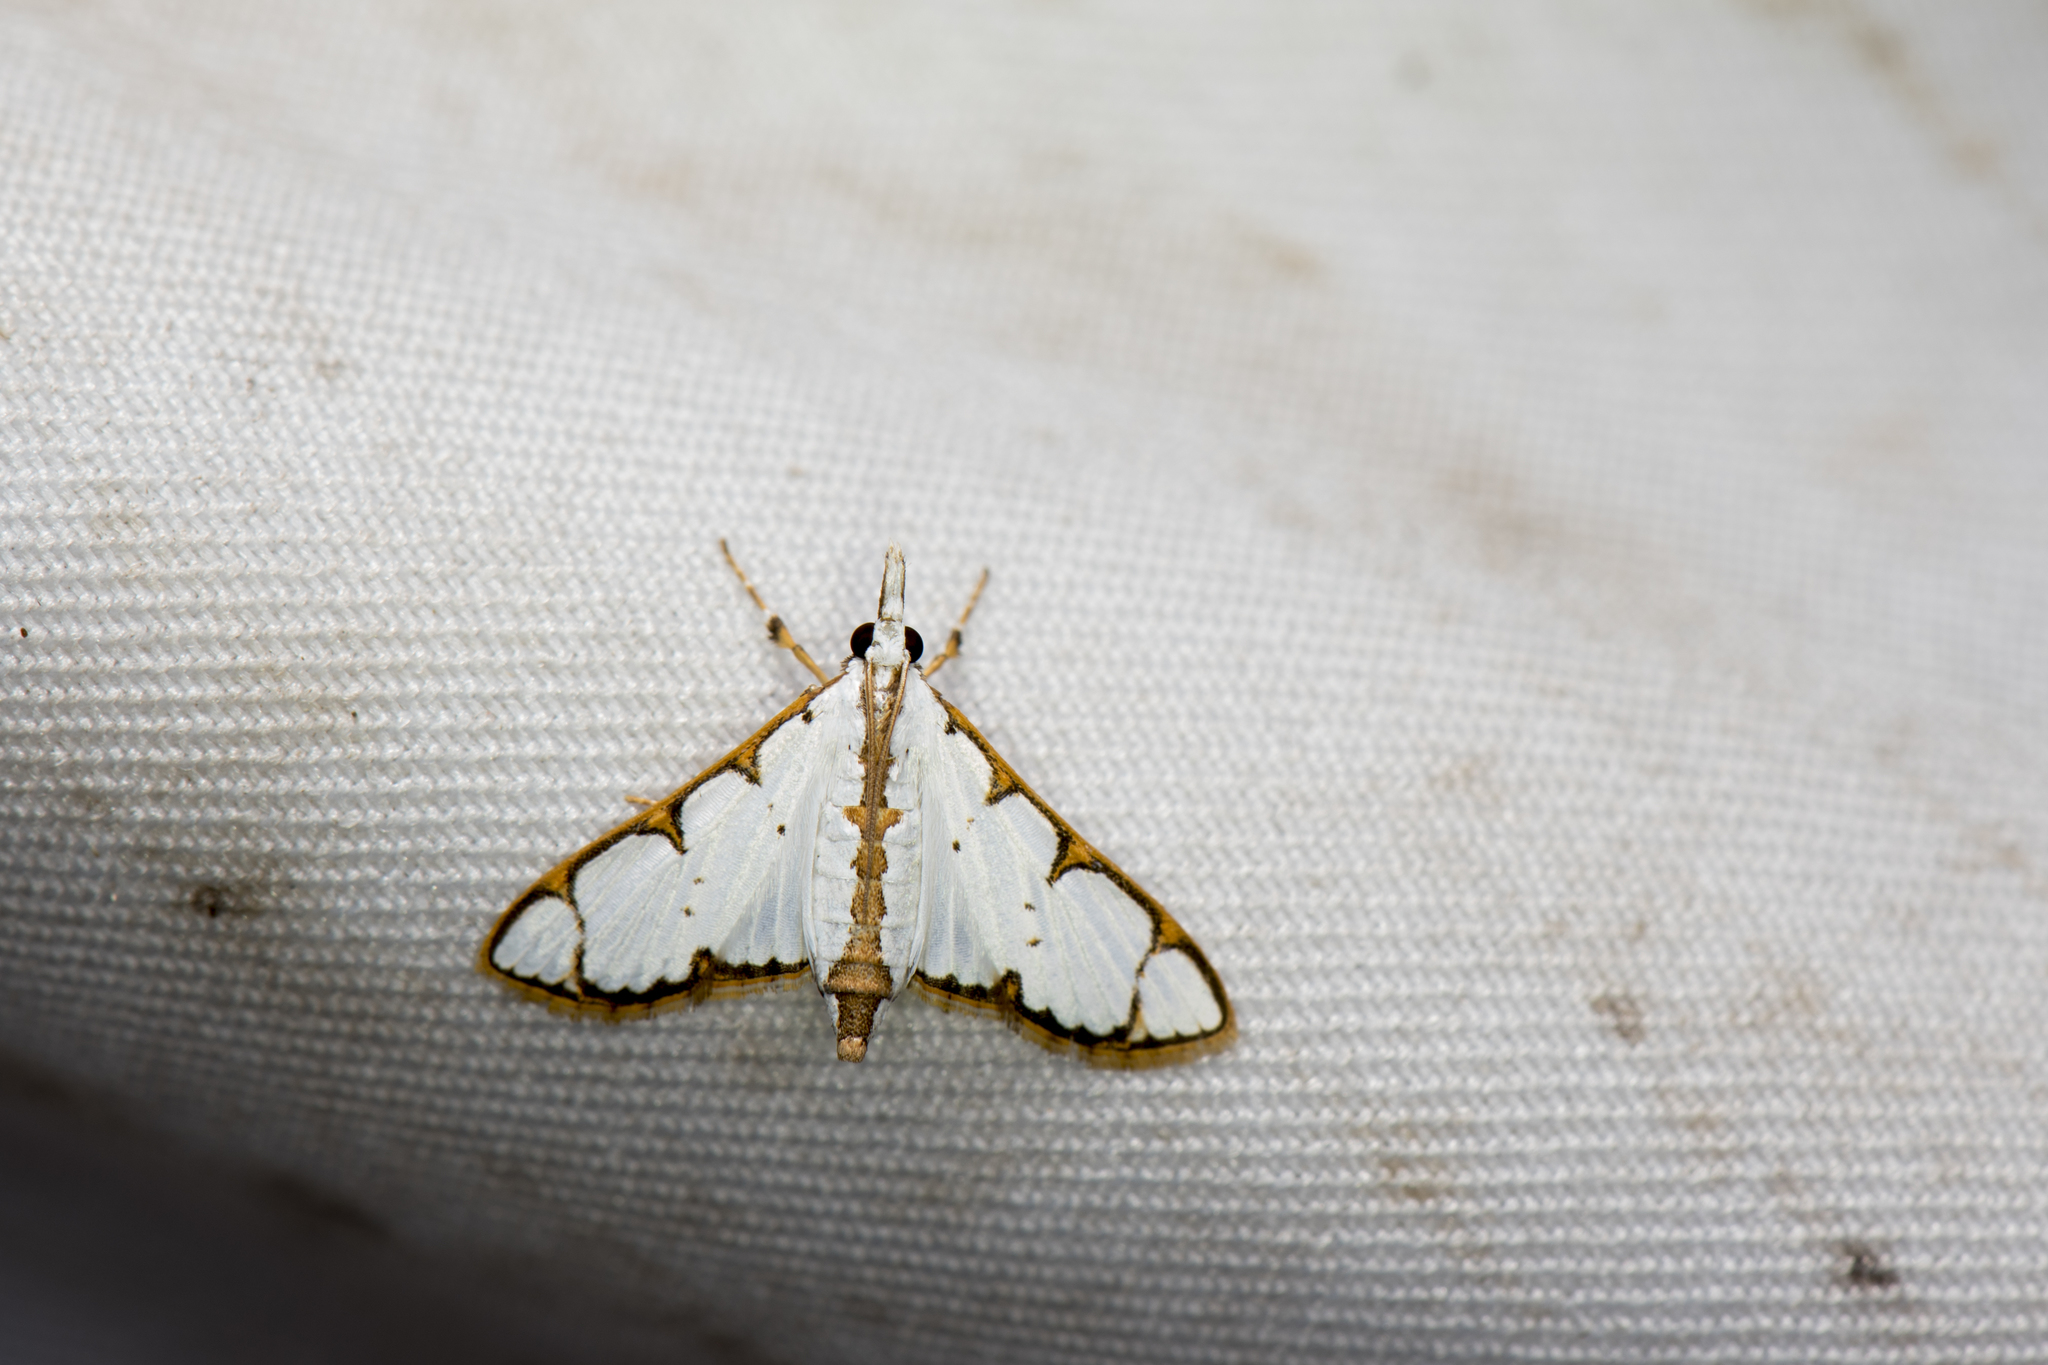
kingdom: Animalia
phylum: Arthropoda
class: Insecta
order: Lepidoptera
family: Crambidae
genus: Cirrhochrista
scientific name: Cirrhochrista spinuella
